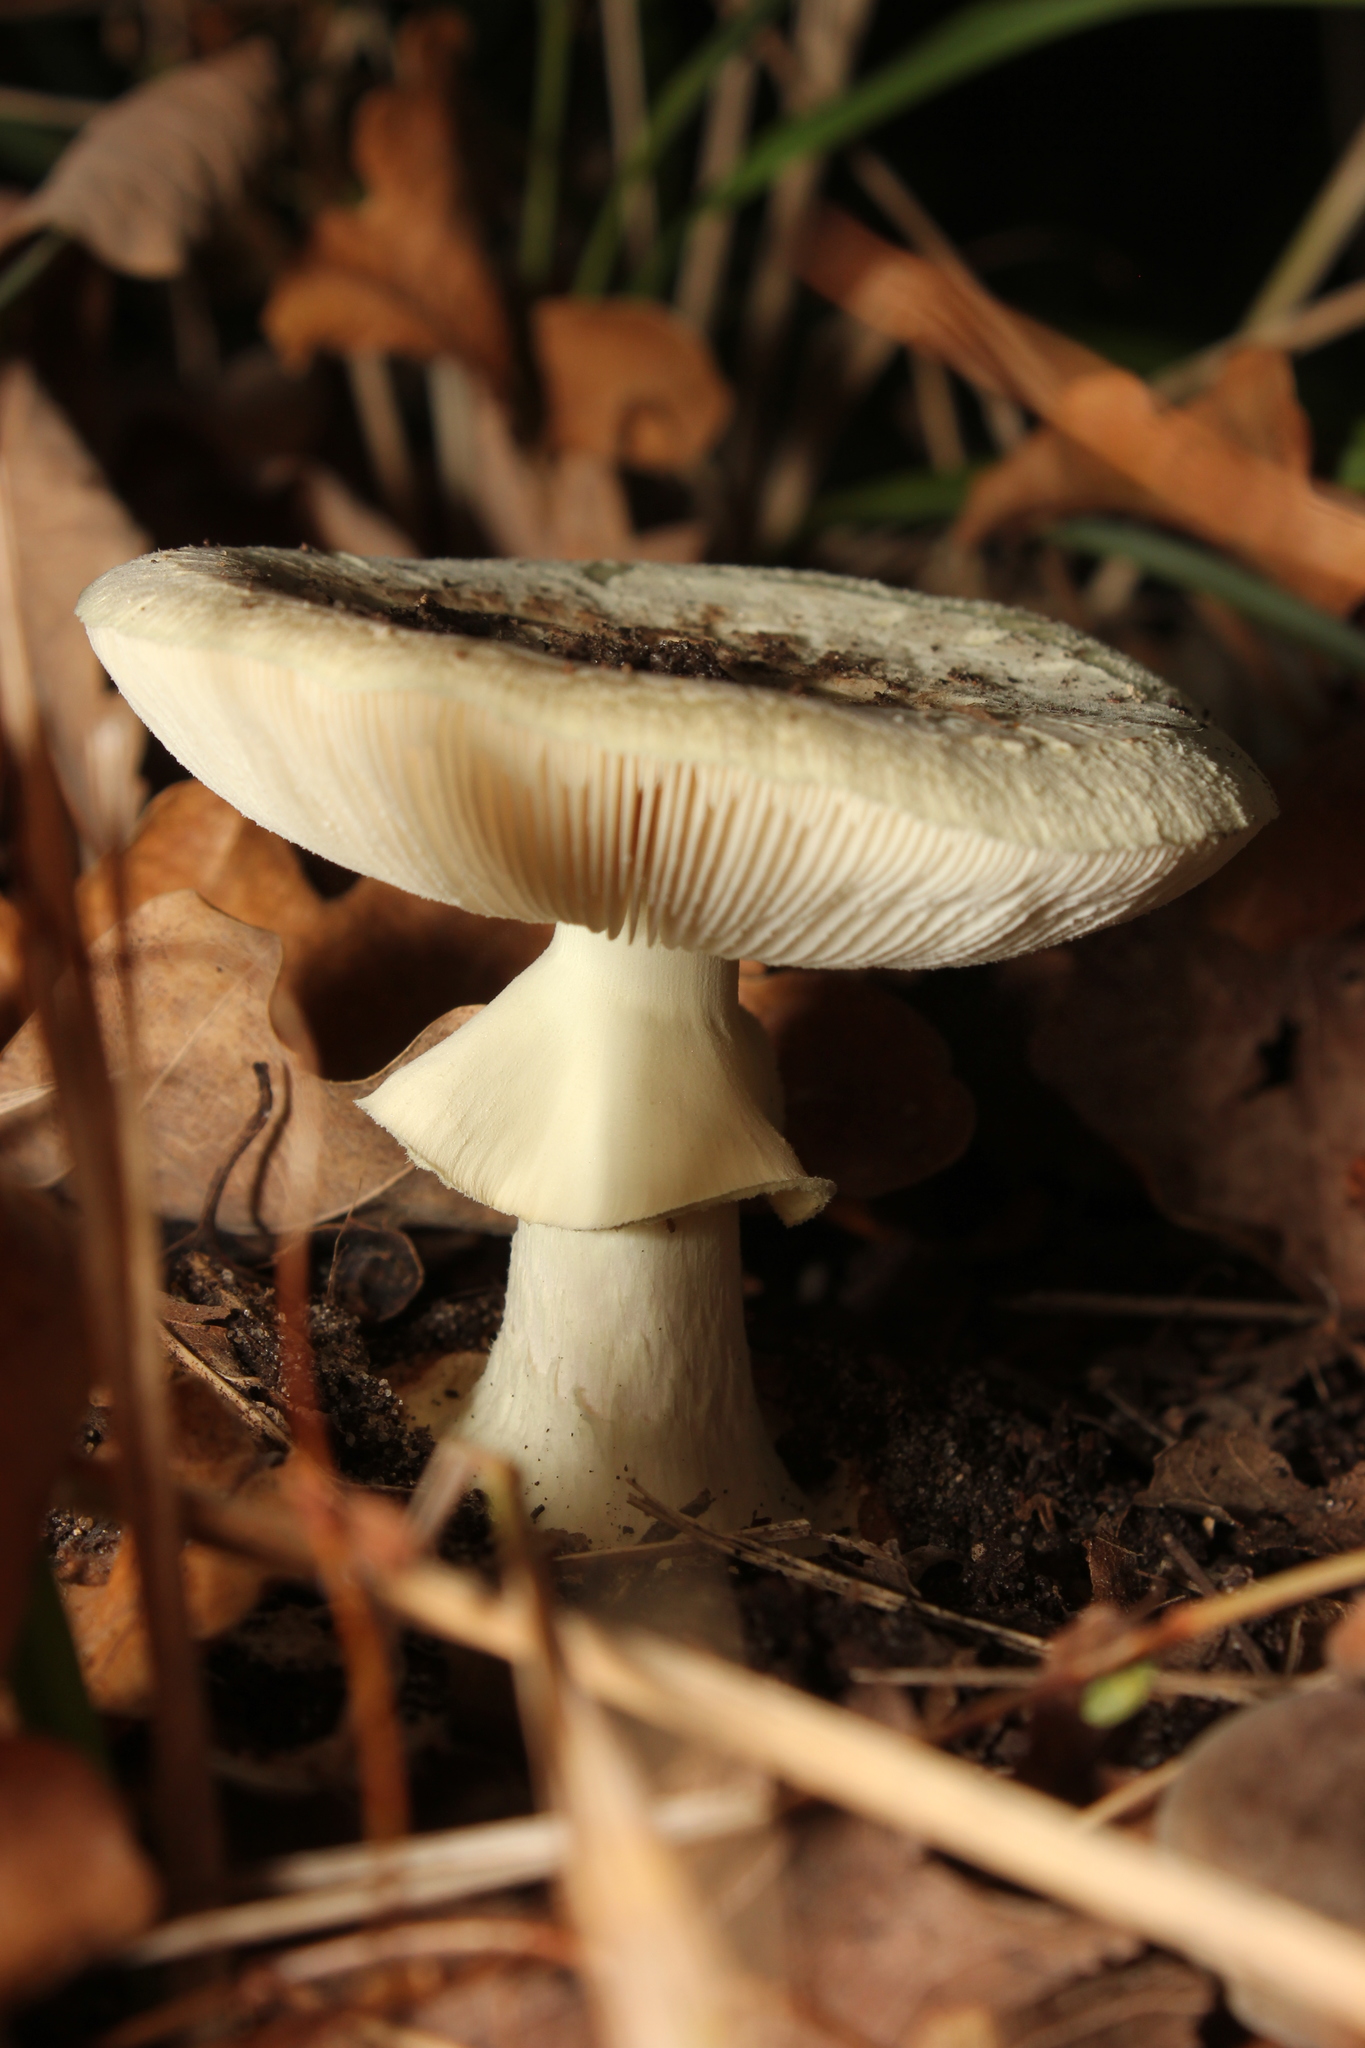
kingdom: Fungi
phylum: Basidiomycota
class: Agaricomycetes
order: Agaricales
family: Amanitaceae
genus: Amanita
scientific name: Amanita citrina
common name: False death-cap
